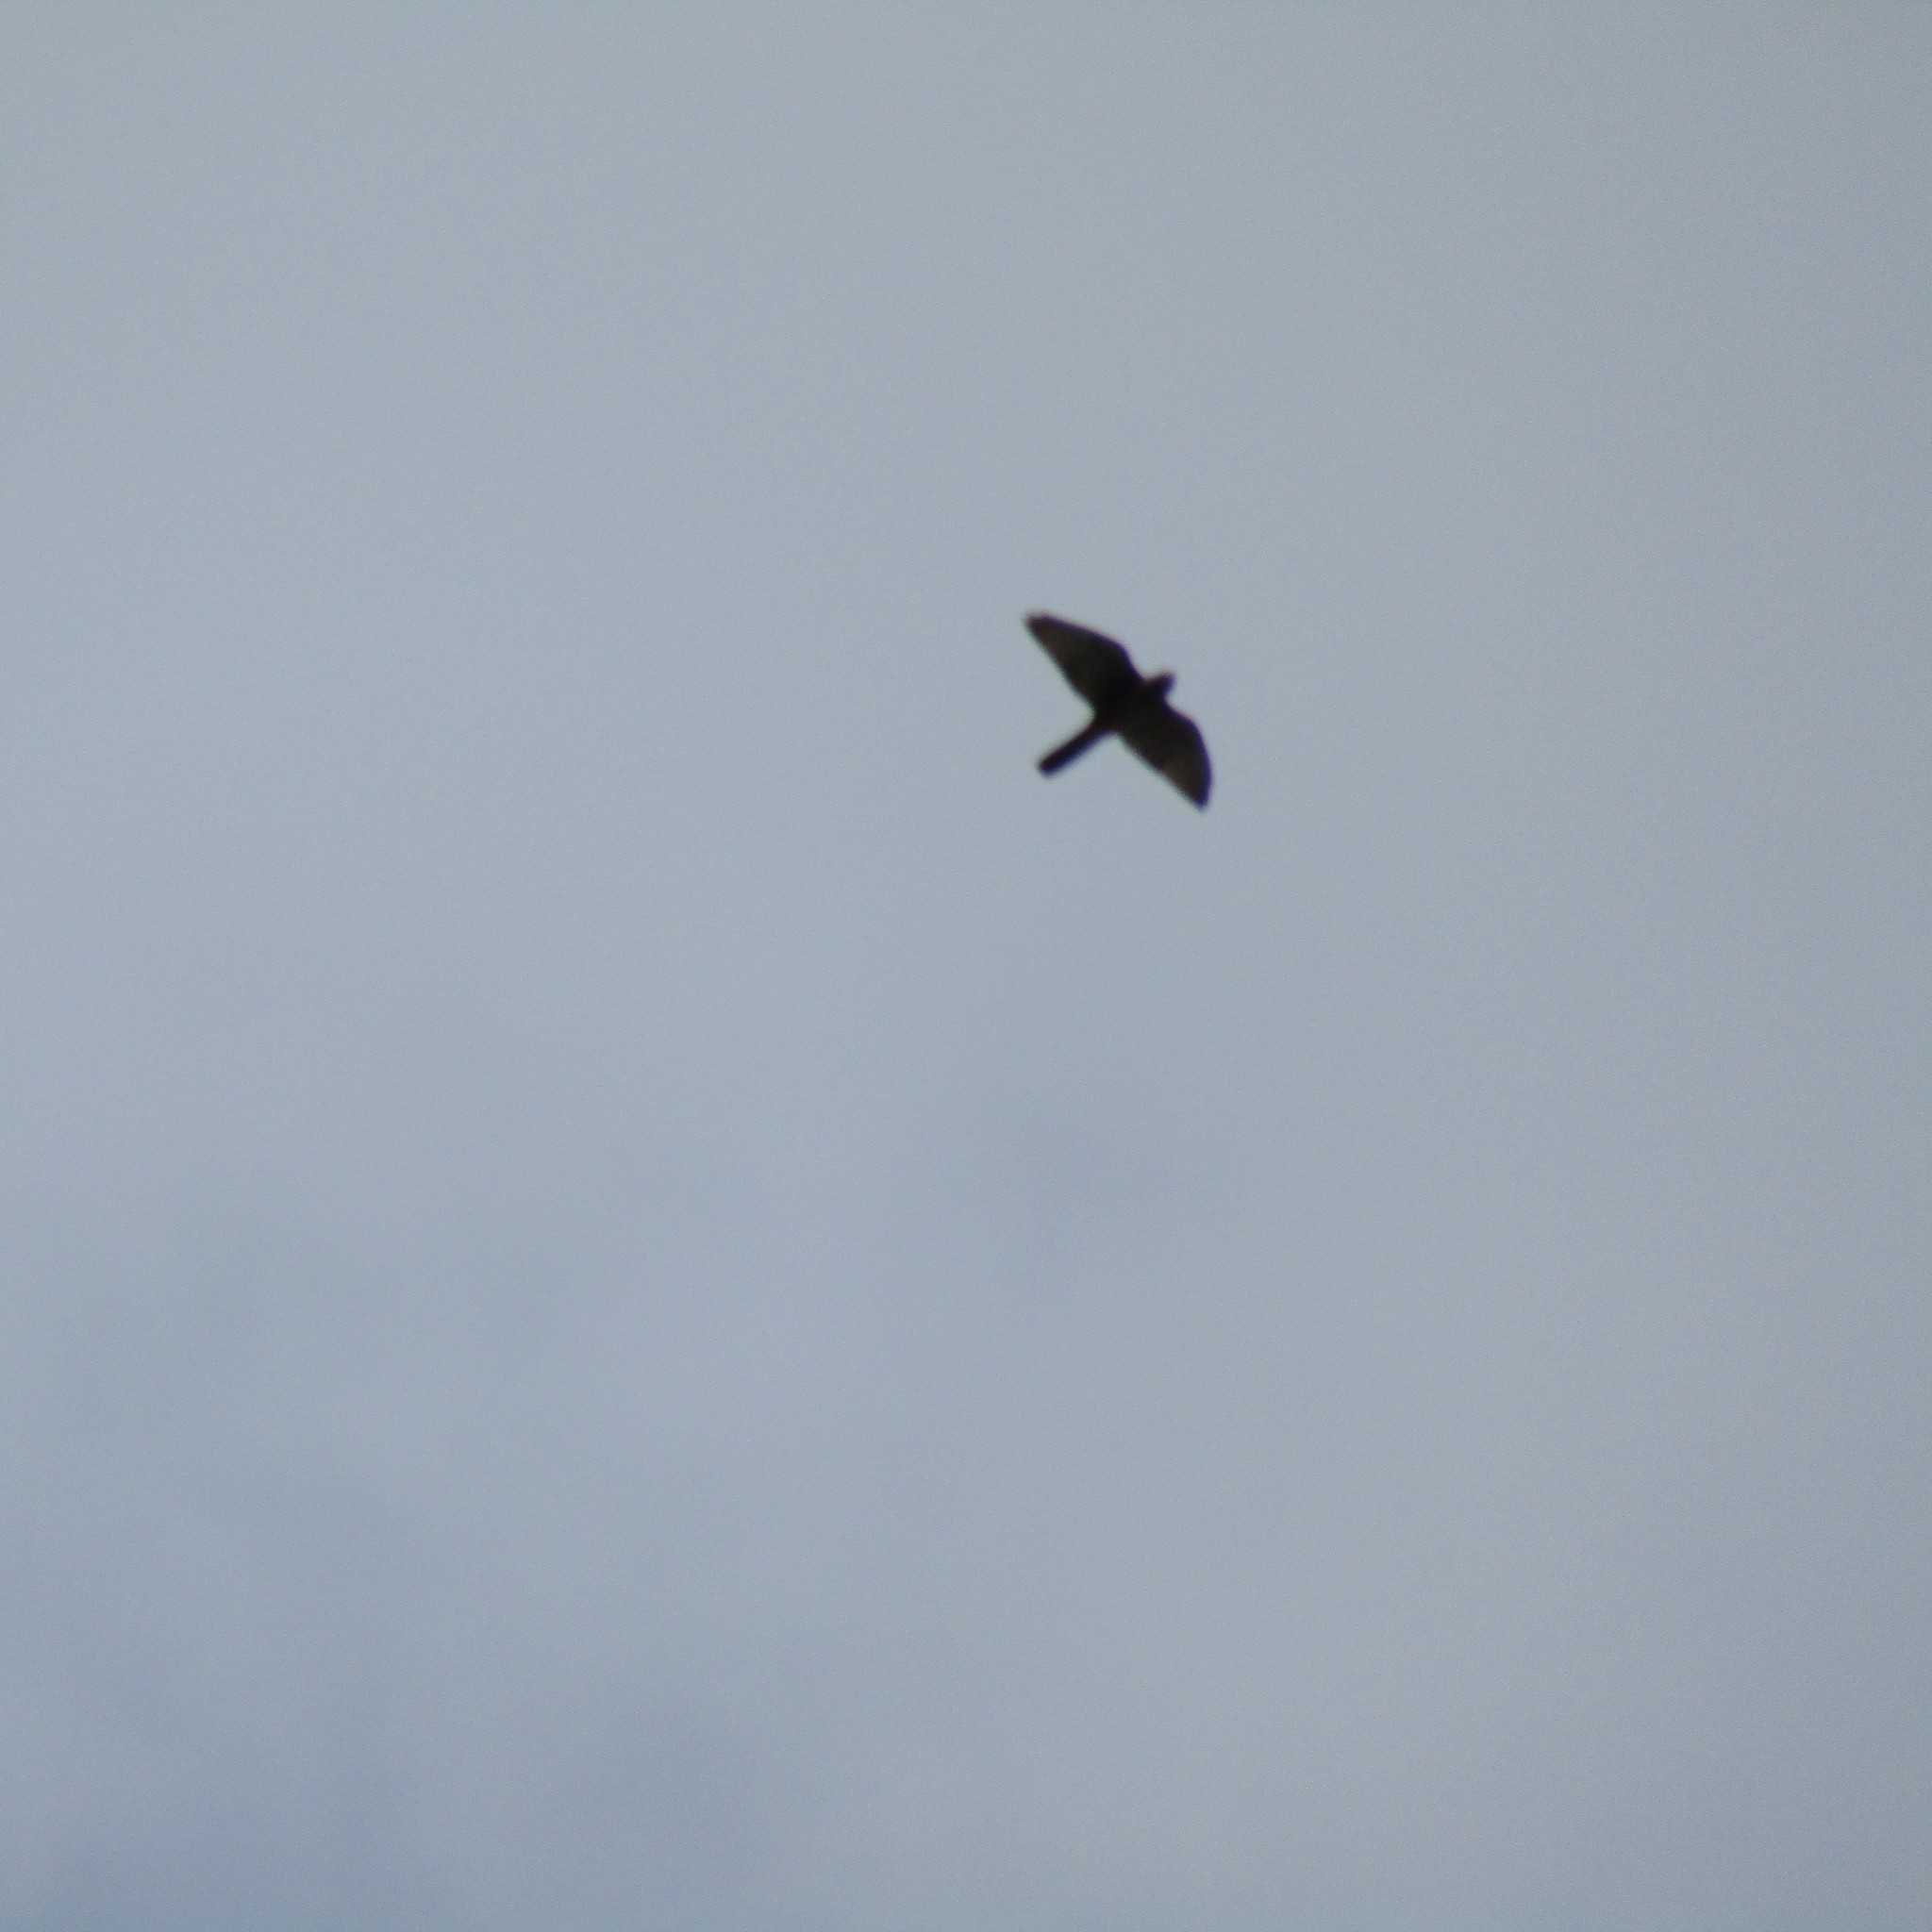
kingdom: Animalia
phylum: Chordata
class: Aves
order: Falconiformes
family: Falconidae
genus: Falco
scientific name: Falco novaeseelandiae
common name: New zealand falcon
